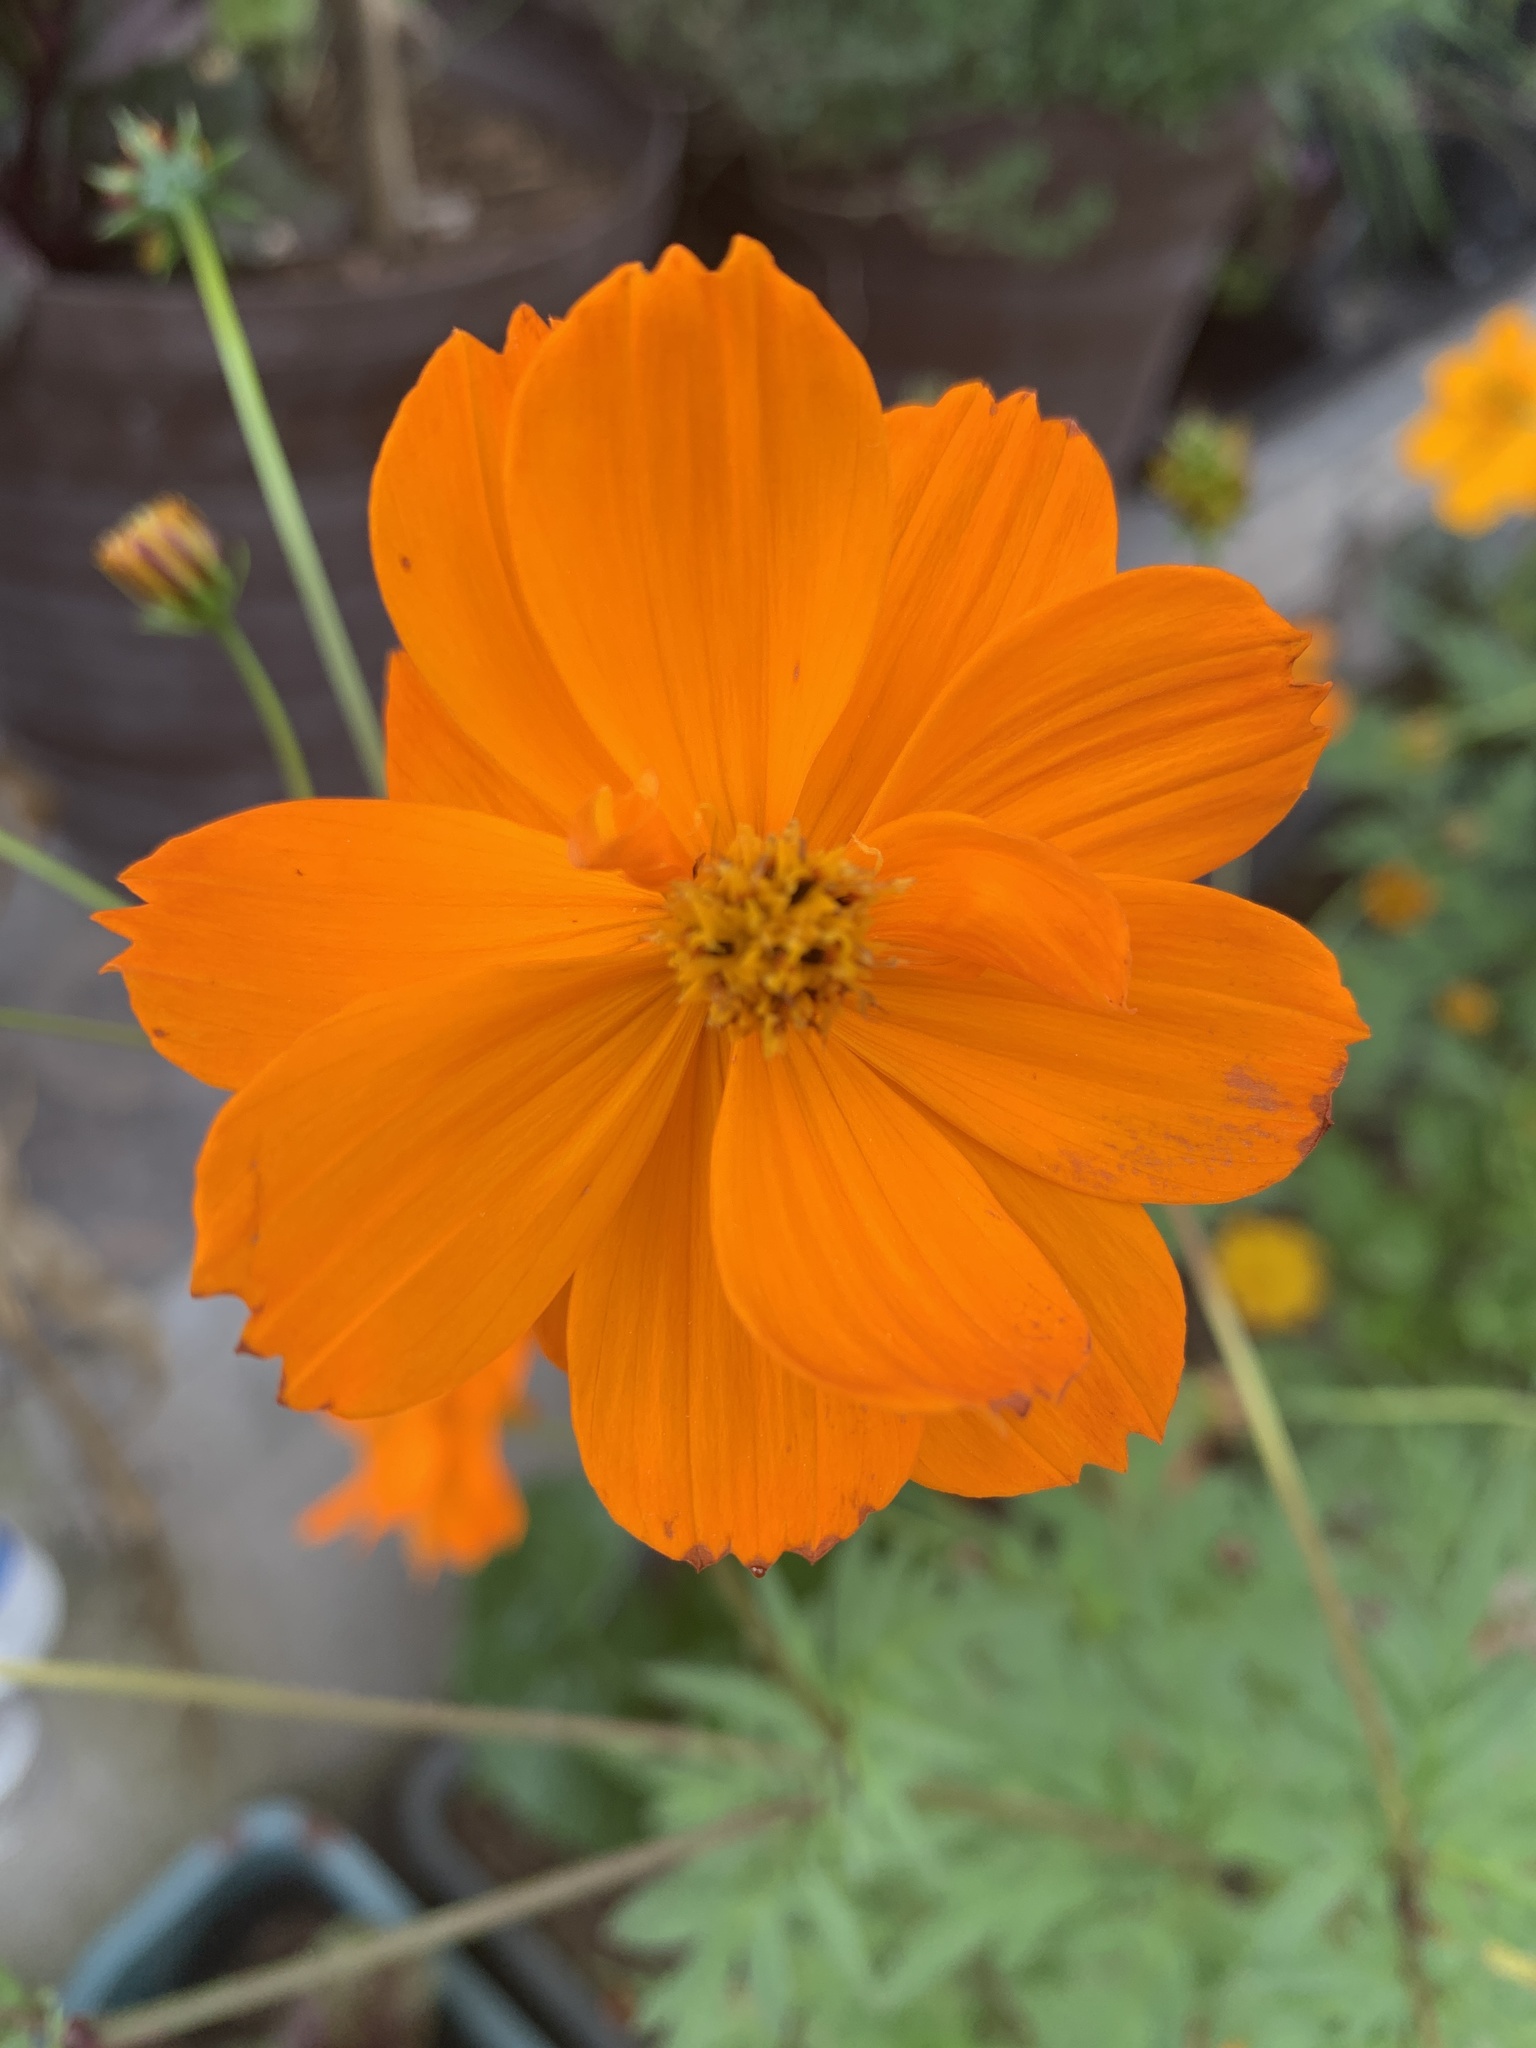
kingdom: Plantae
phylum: Tracheophyta
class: Magnoliopsida
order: Asterales
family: Asteraceae
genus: Cosmos
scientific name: Cosmos sulphureus
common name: Sulphur cosmos
